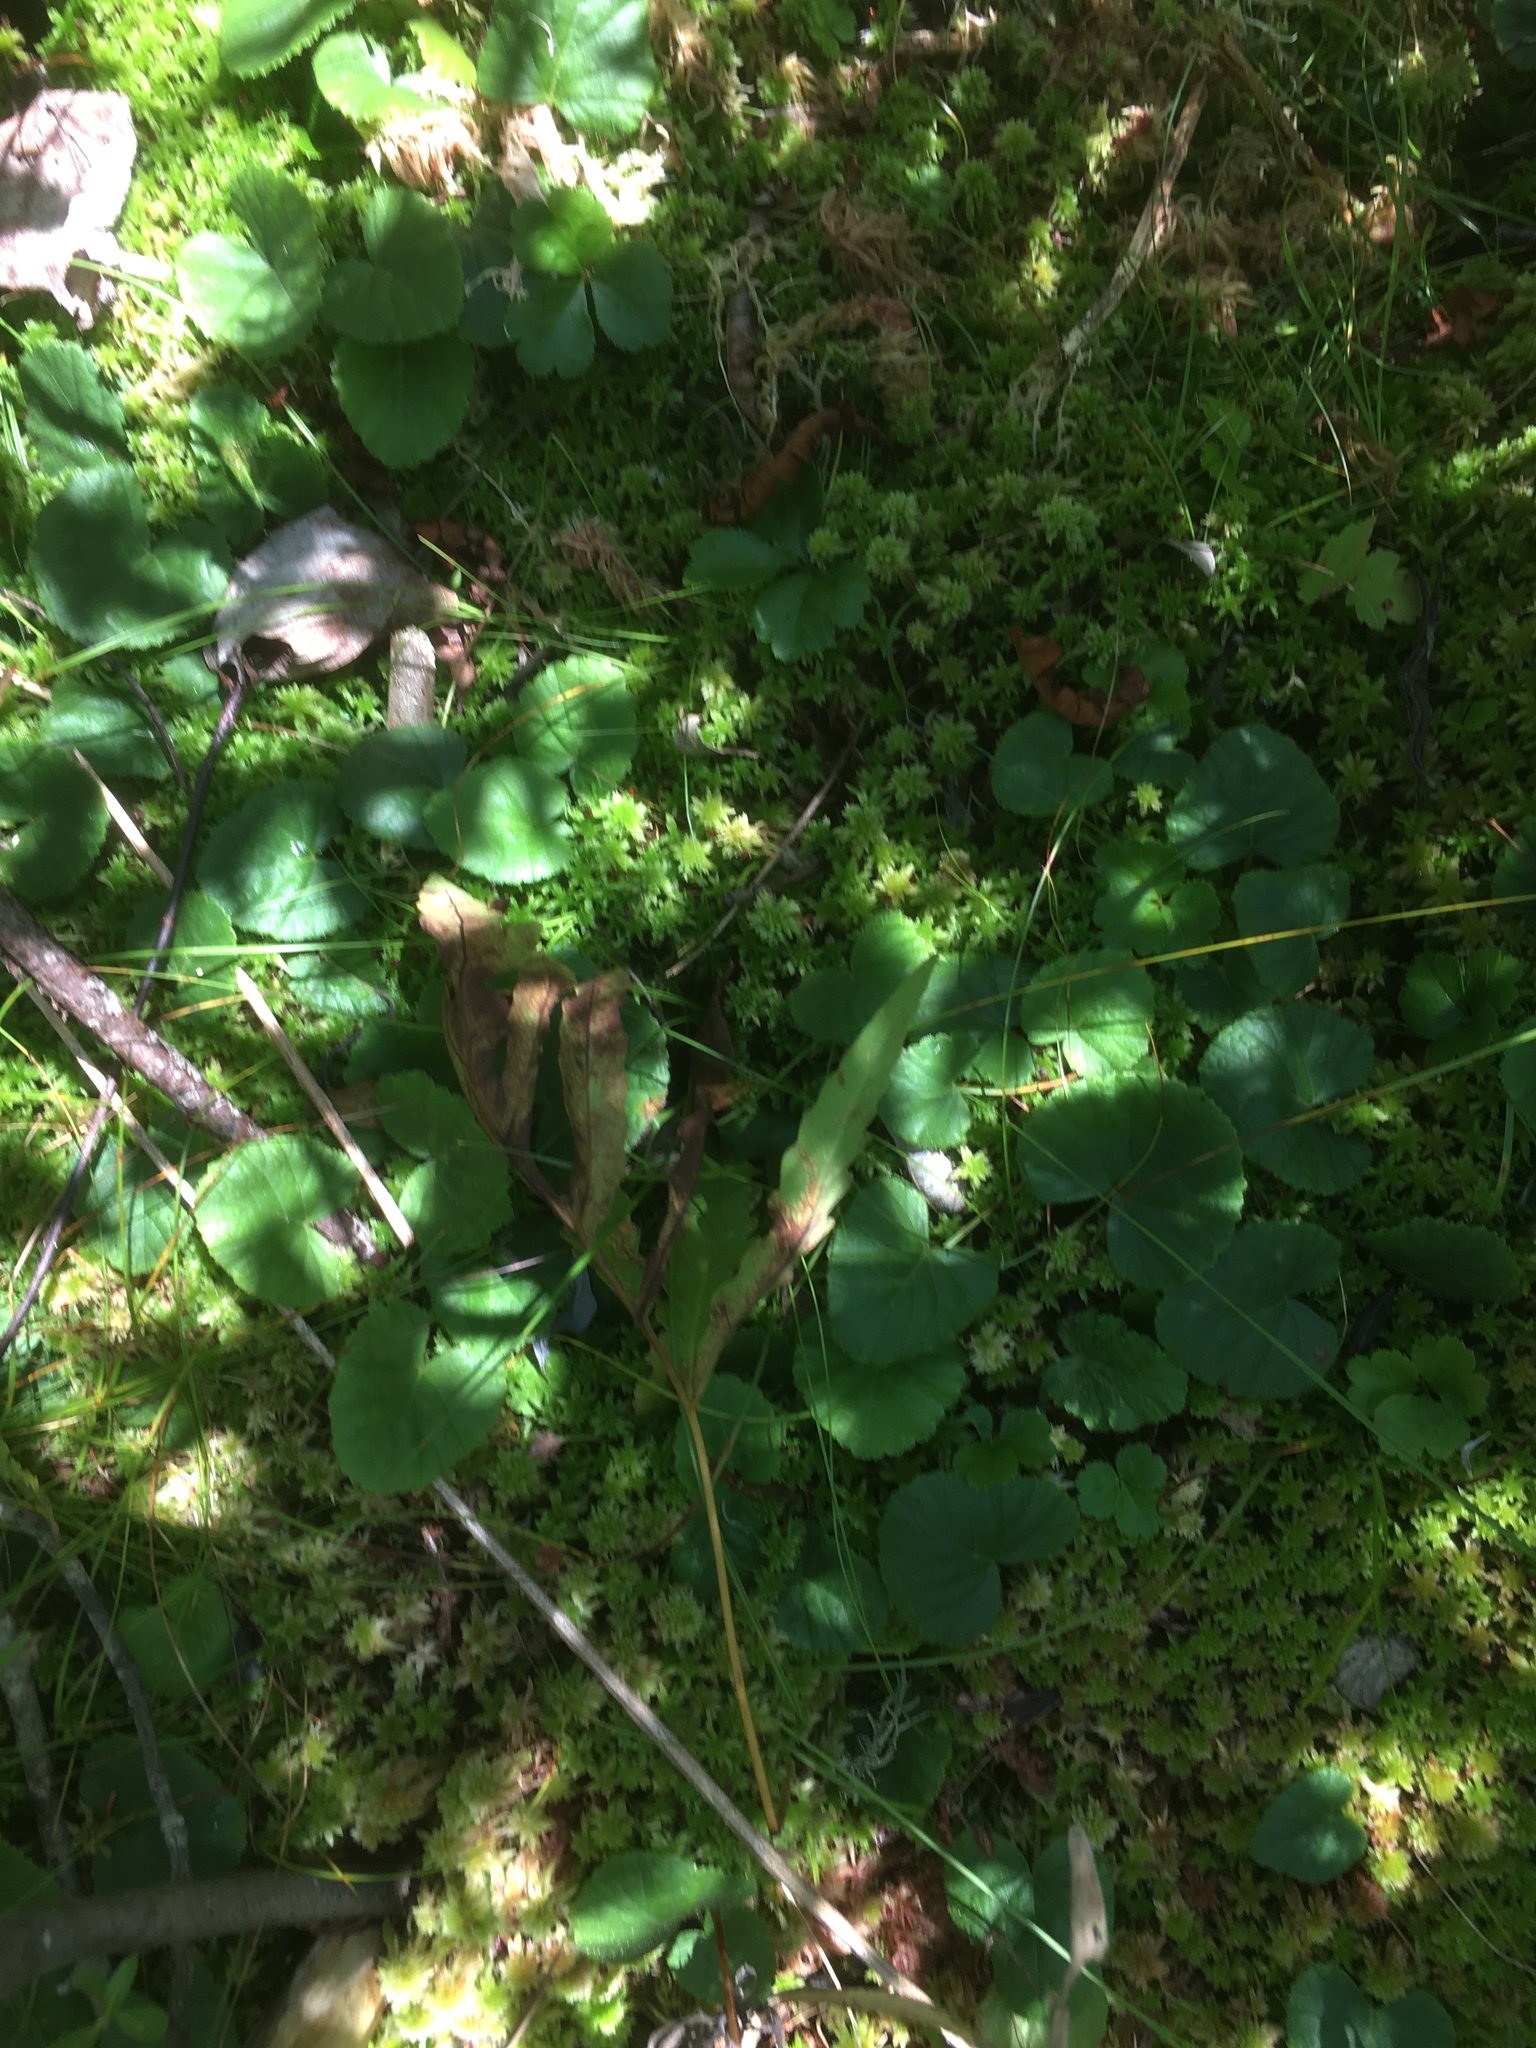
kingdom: Plantae
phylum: Tracheophyta
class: Magnoliopsida
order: Rosales
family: Rosaceae
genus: Dalibarda
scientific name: Dalibarda repens
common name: Dewdrop
